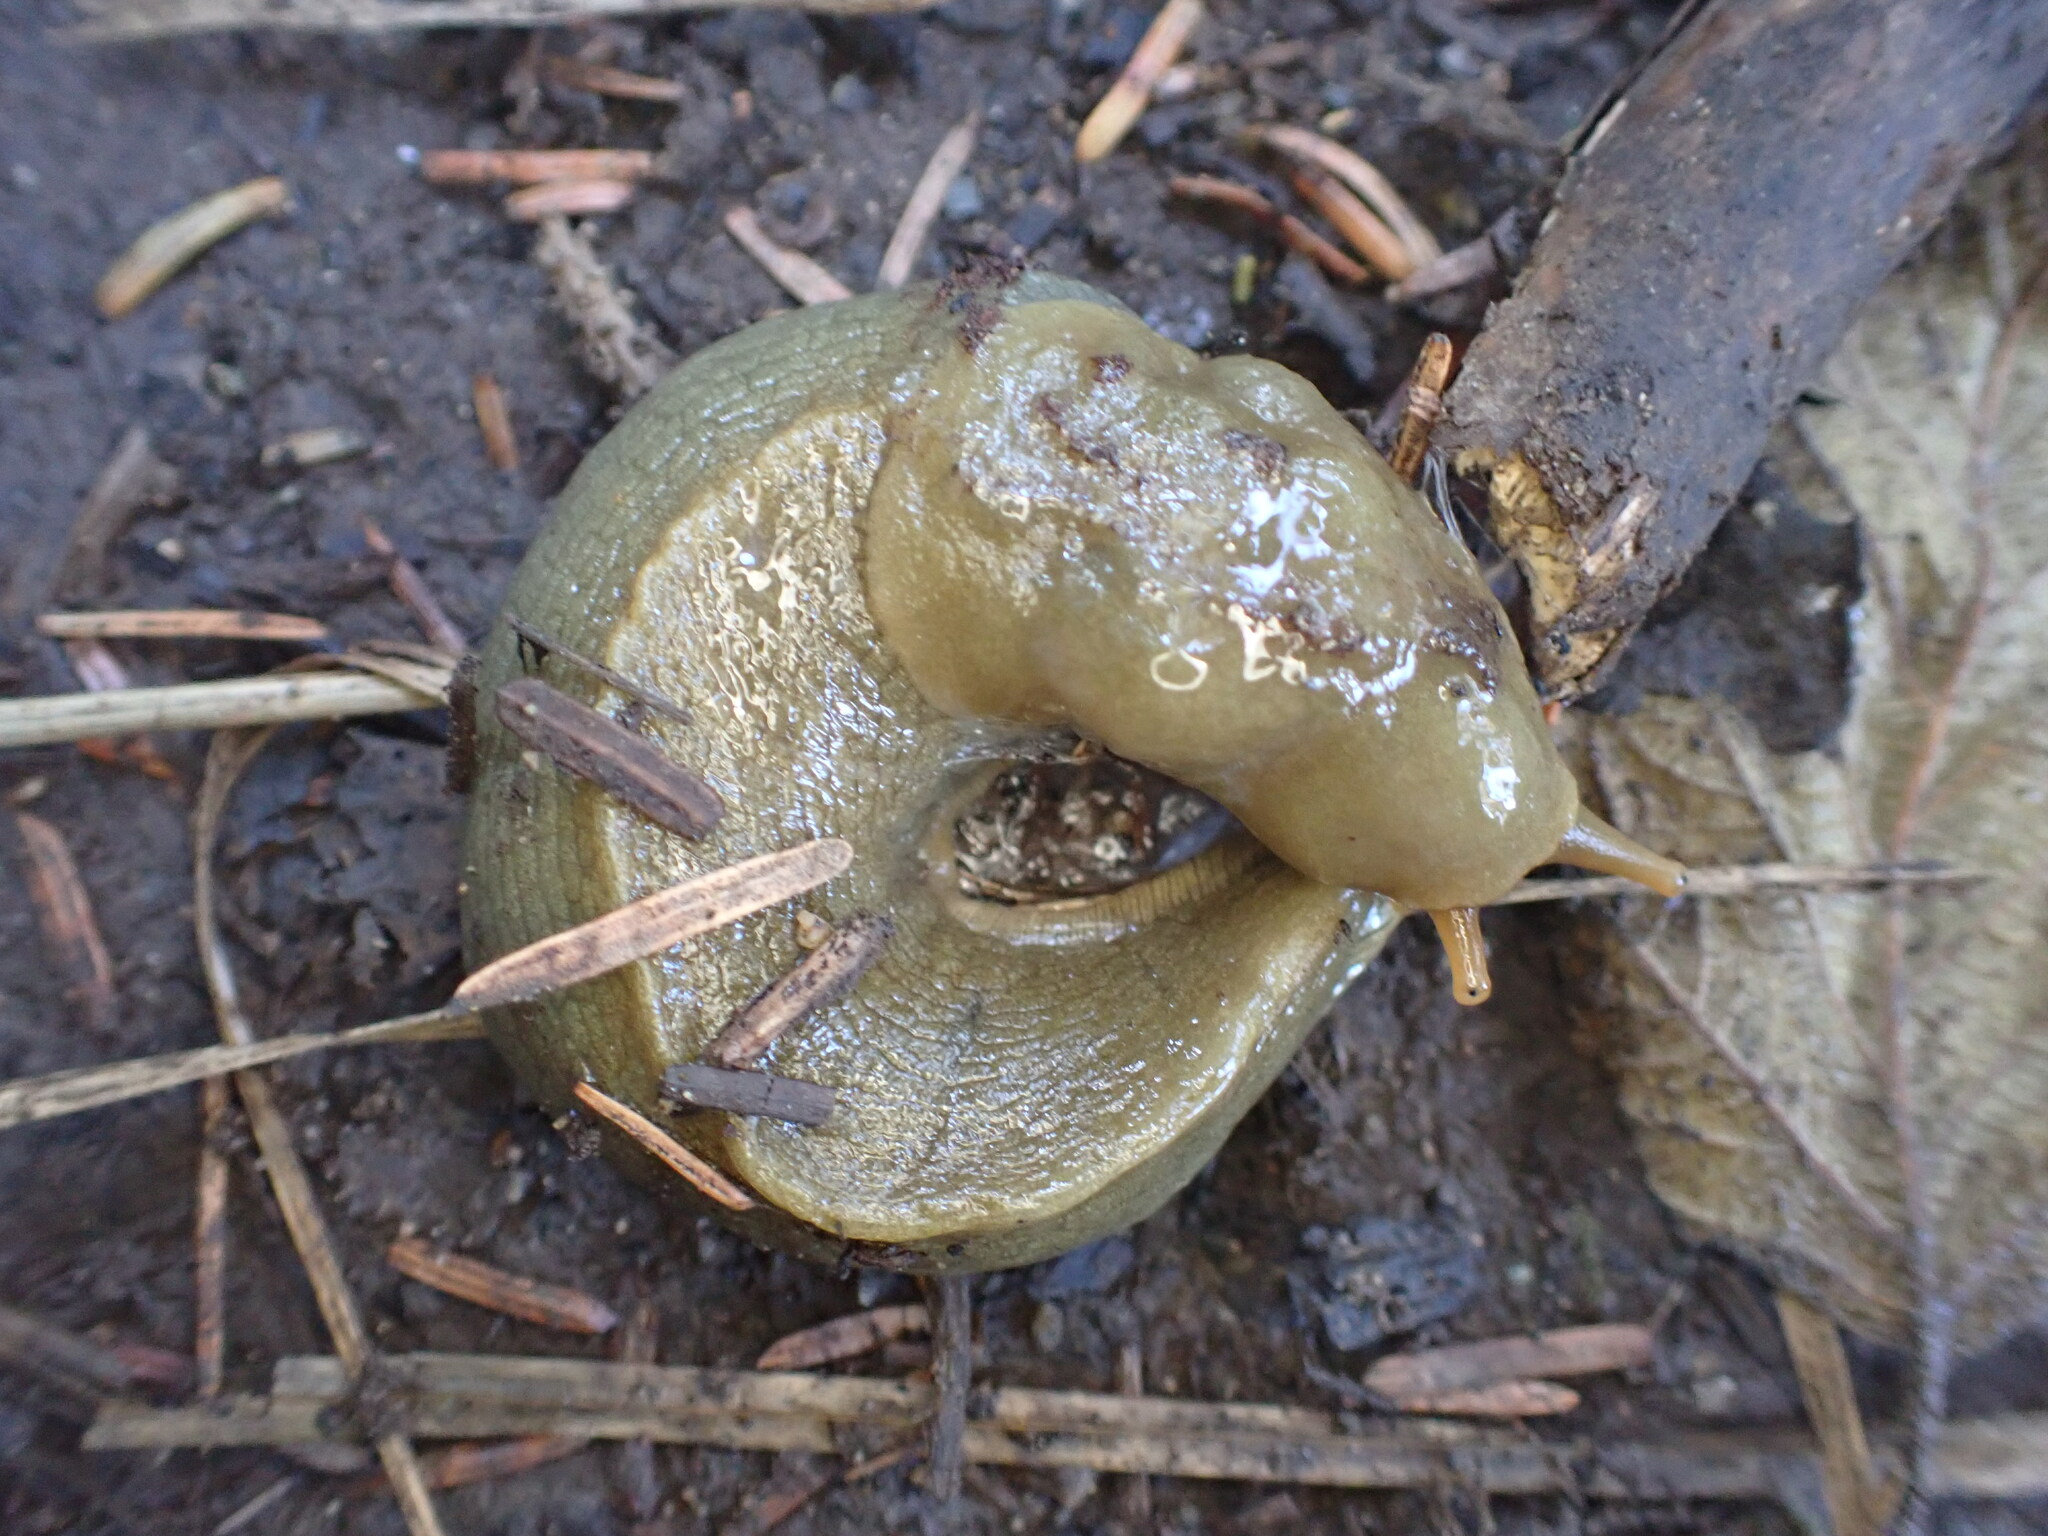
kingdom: Animalia
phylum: Mollusca
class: Gastropoda
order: Stylommatophora
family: Ariolimacidae
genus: Ariolimax
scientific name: Ariolimax columbianus
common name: Pacific banana slug
